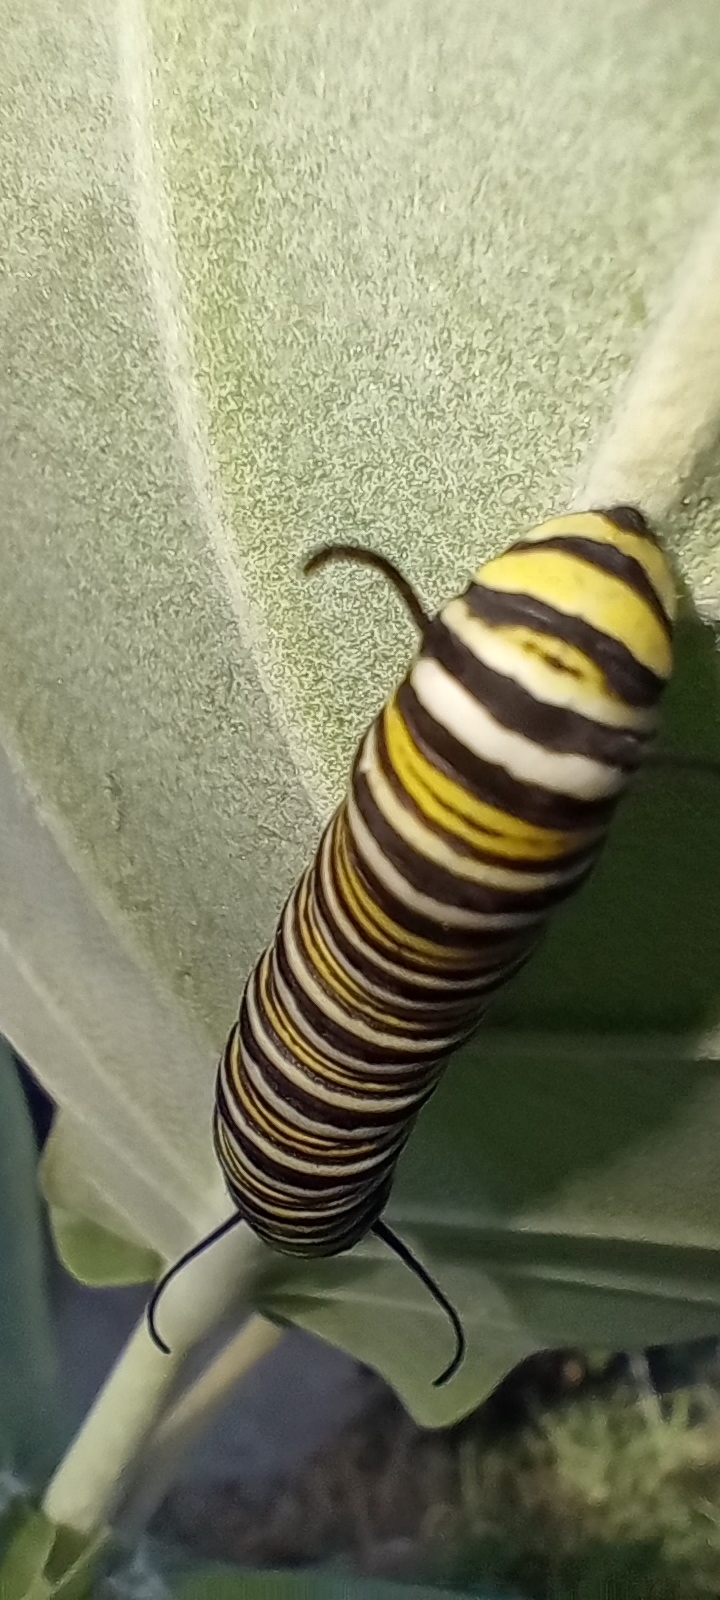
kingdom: Animalia
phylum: Arthropoda
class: Insecta
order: Lepidoptera
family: Nymphalidae
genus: Danaus
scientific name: Danaus plexippus
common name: Monarch
